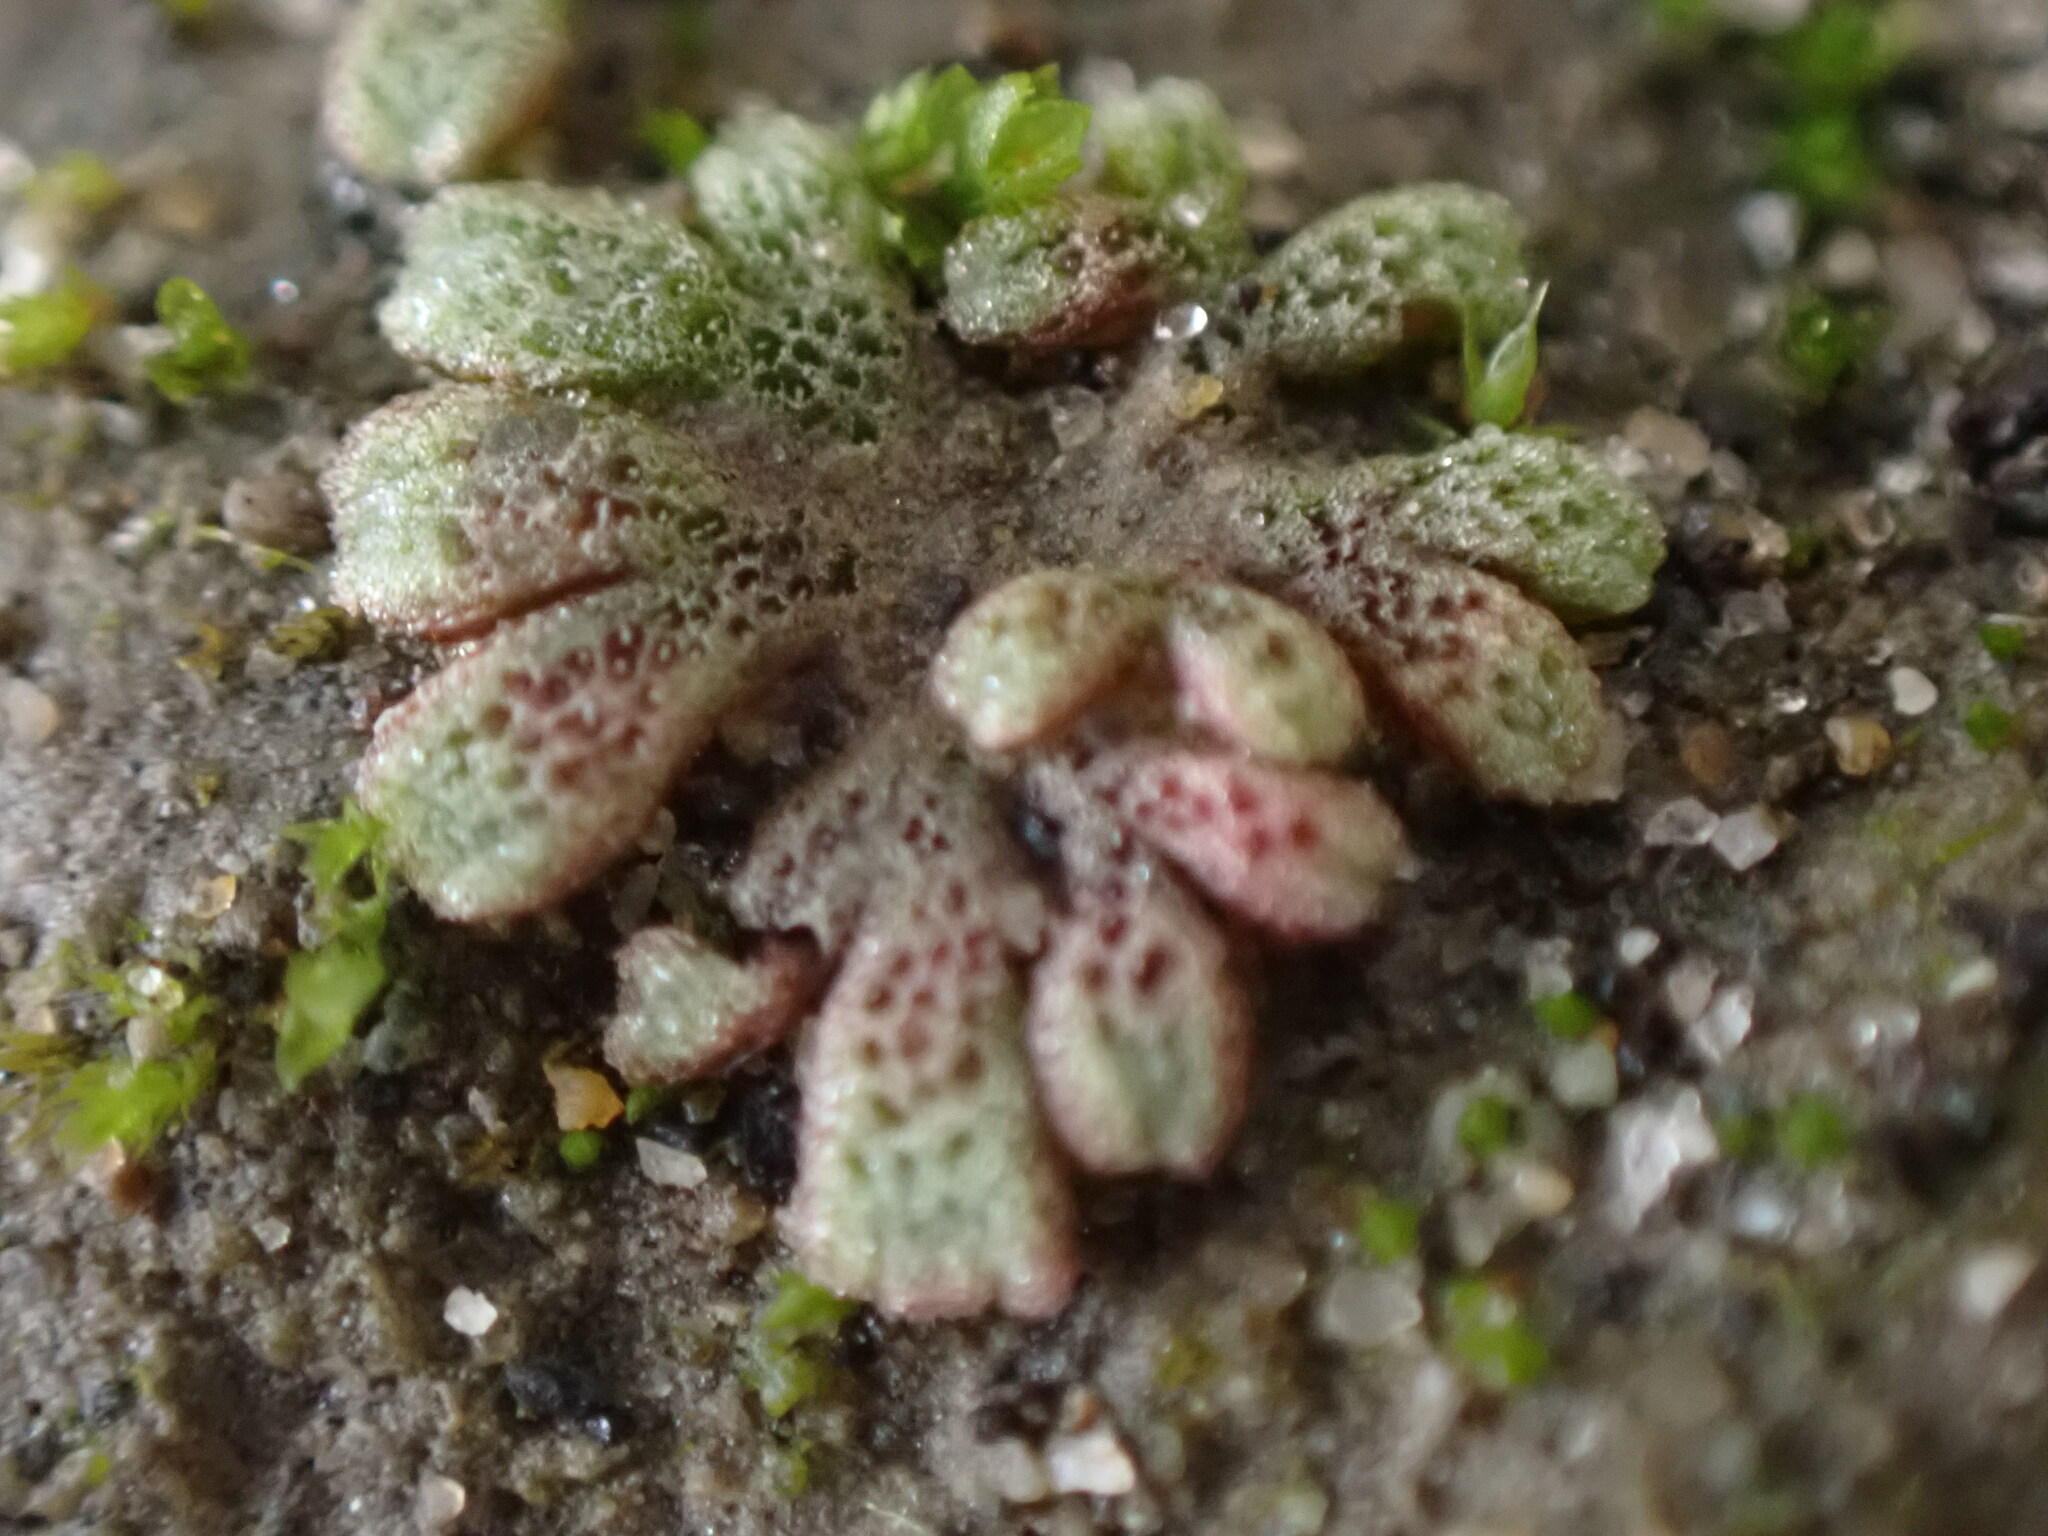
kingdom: Plantae
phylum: Marchantiophyta
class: Marchantiopsida
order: Marchantiales
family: Ricciaceae
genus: Riccia
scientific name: Riccia frostii
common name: Frost s crystalwort
